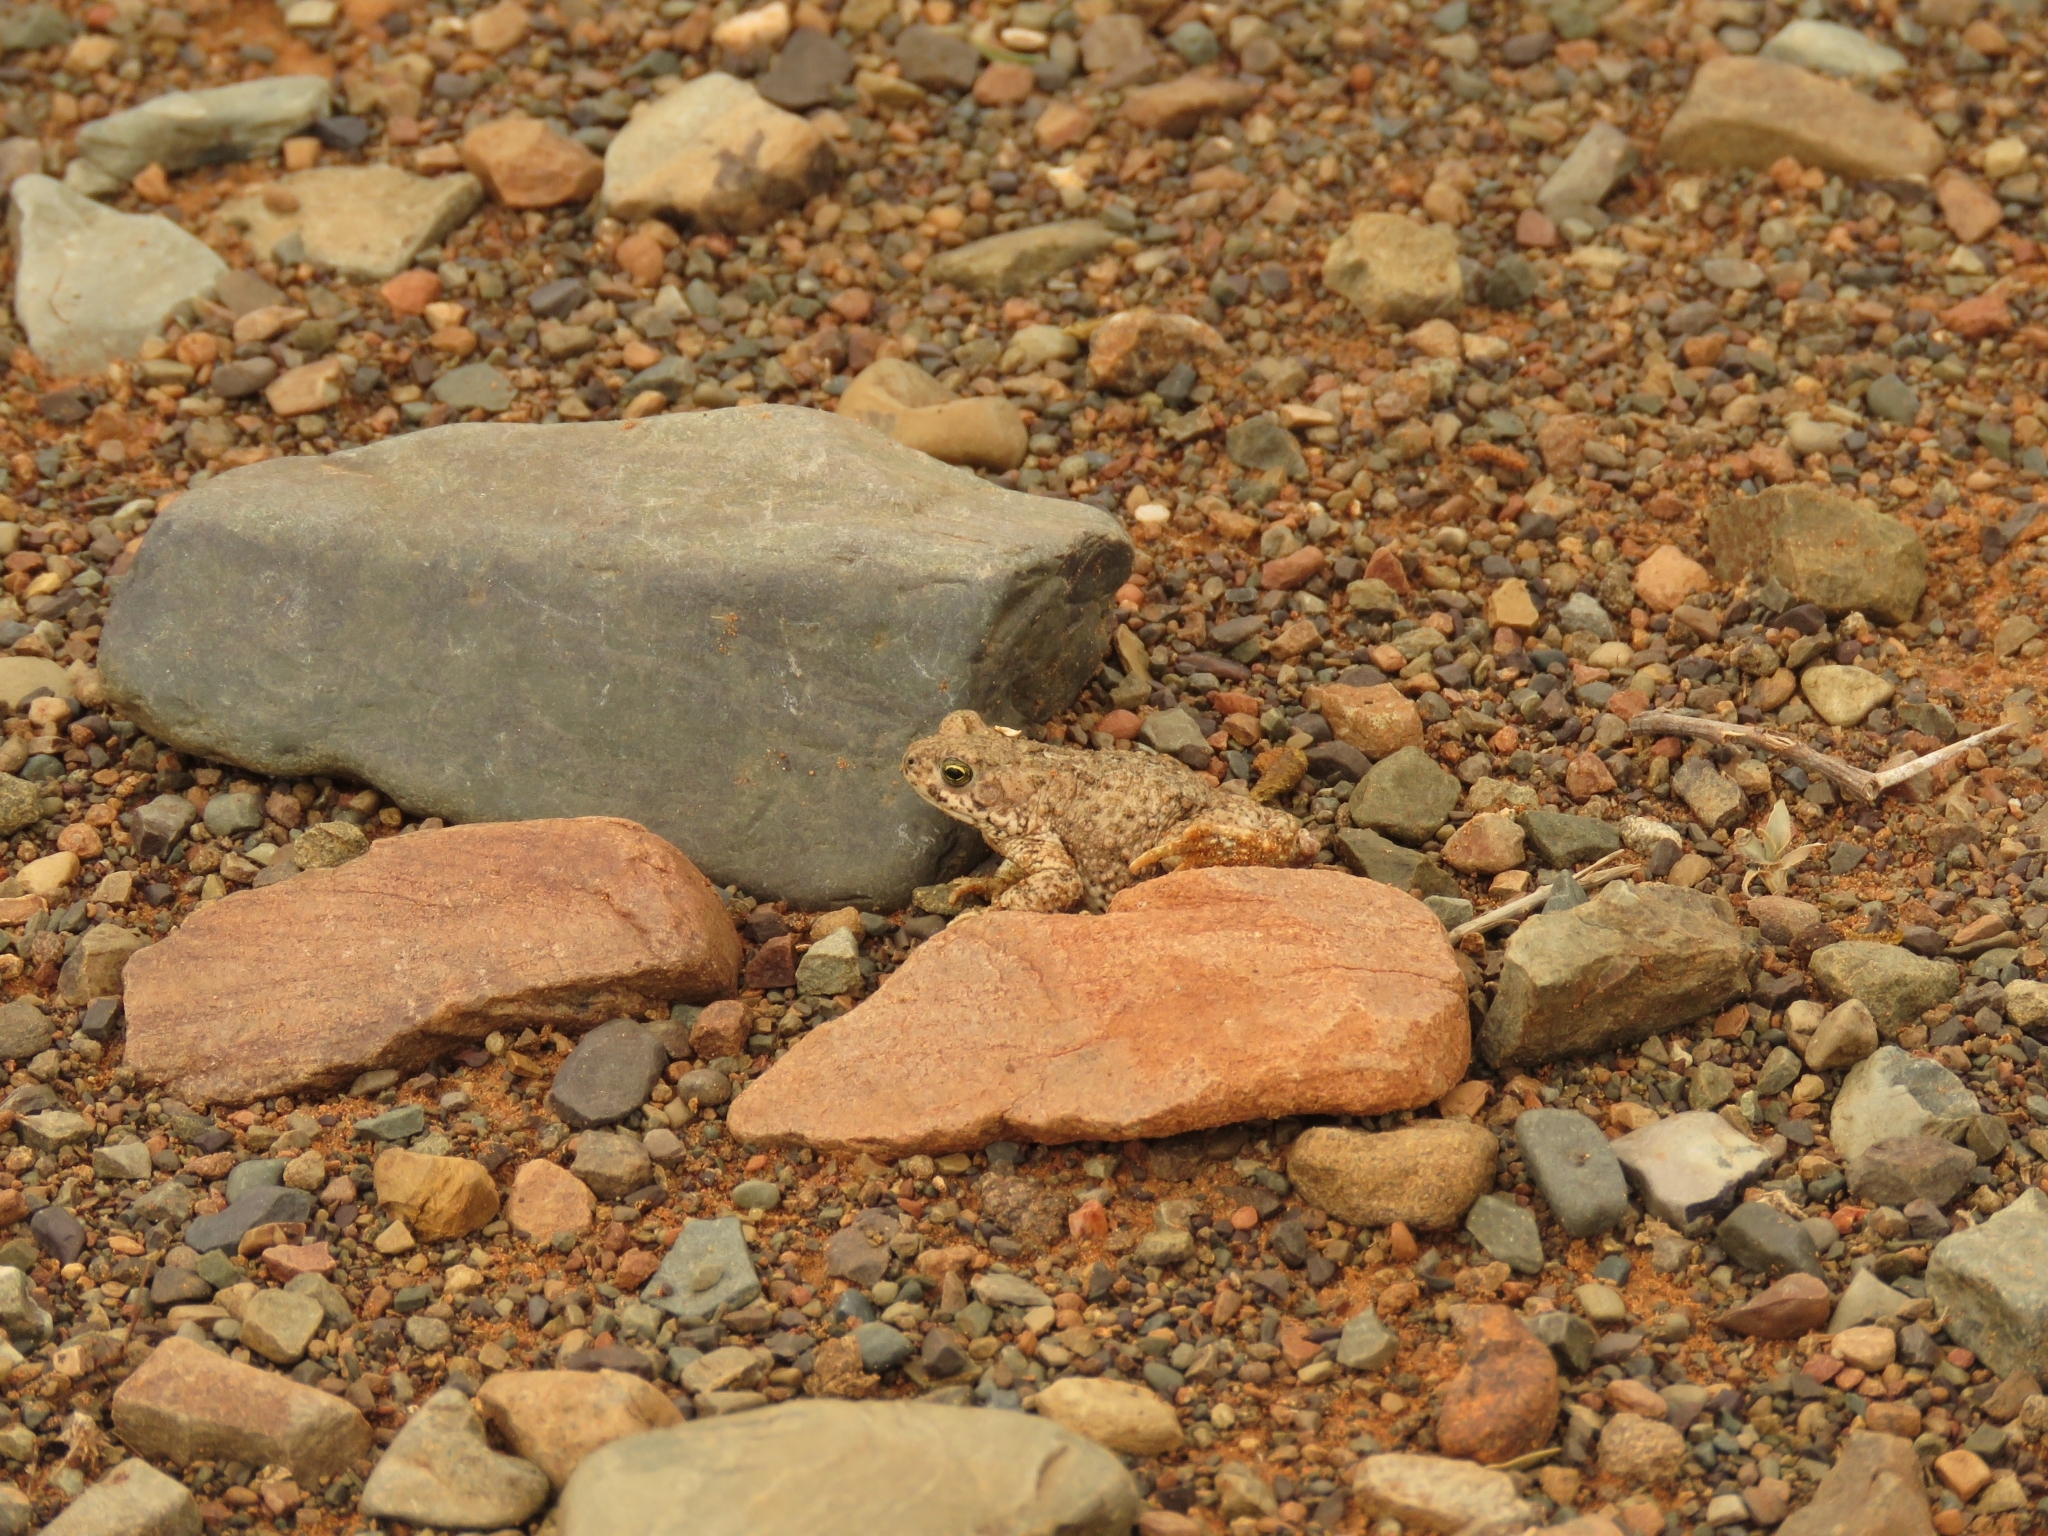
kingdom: Animalia
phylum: Chordata
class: Amphibia
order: Anura
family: Bufonidae
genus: Poyntonophrynus
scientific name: Poyntonophrynus vertebralis
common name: Southern pygmy toad
